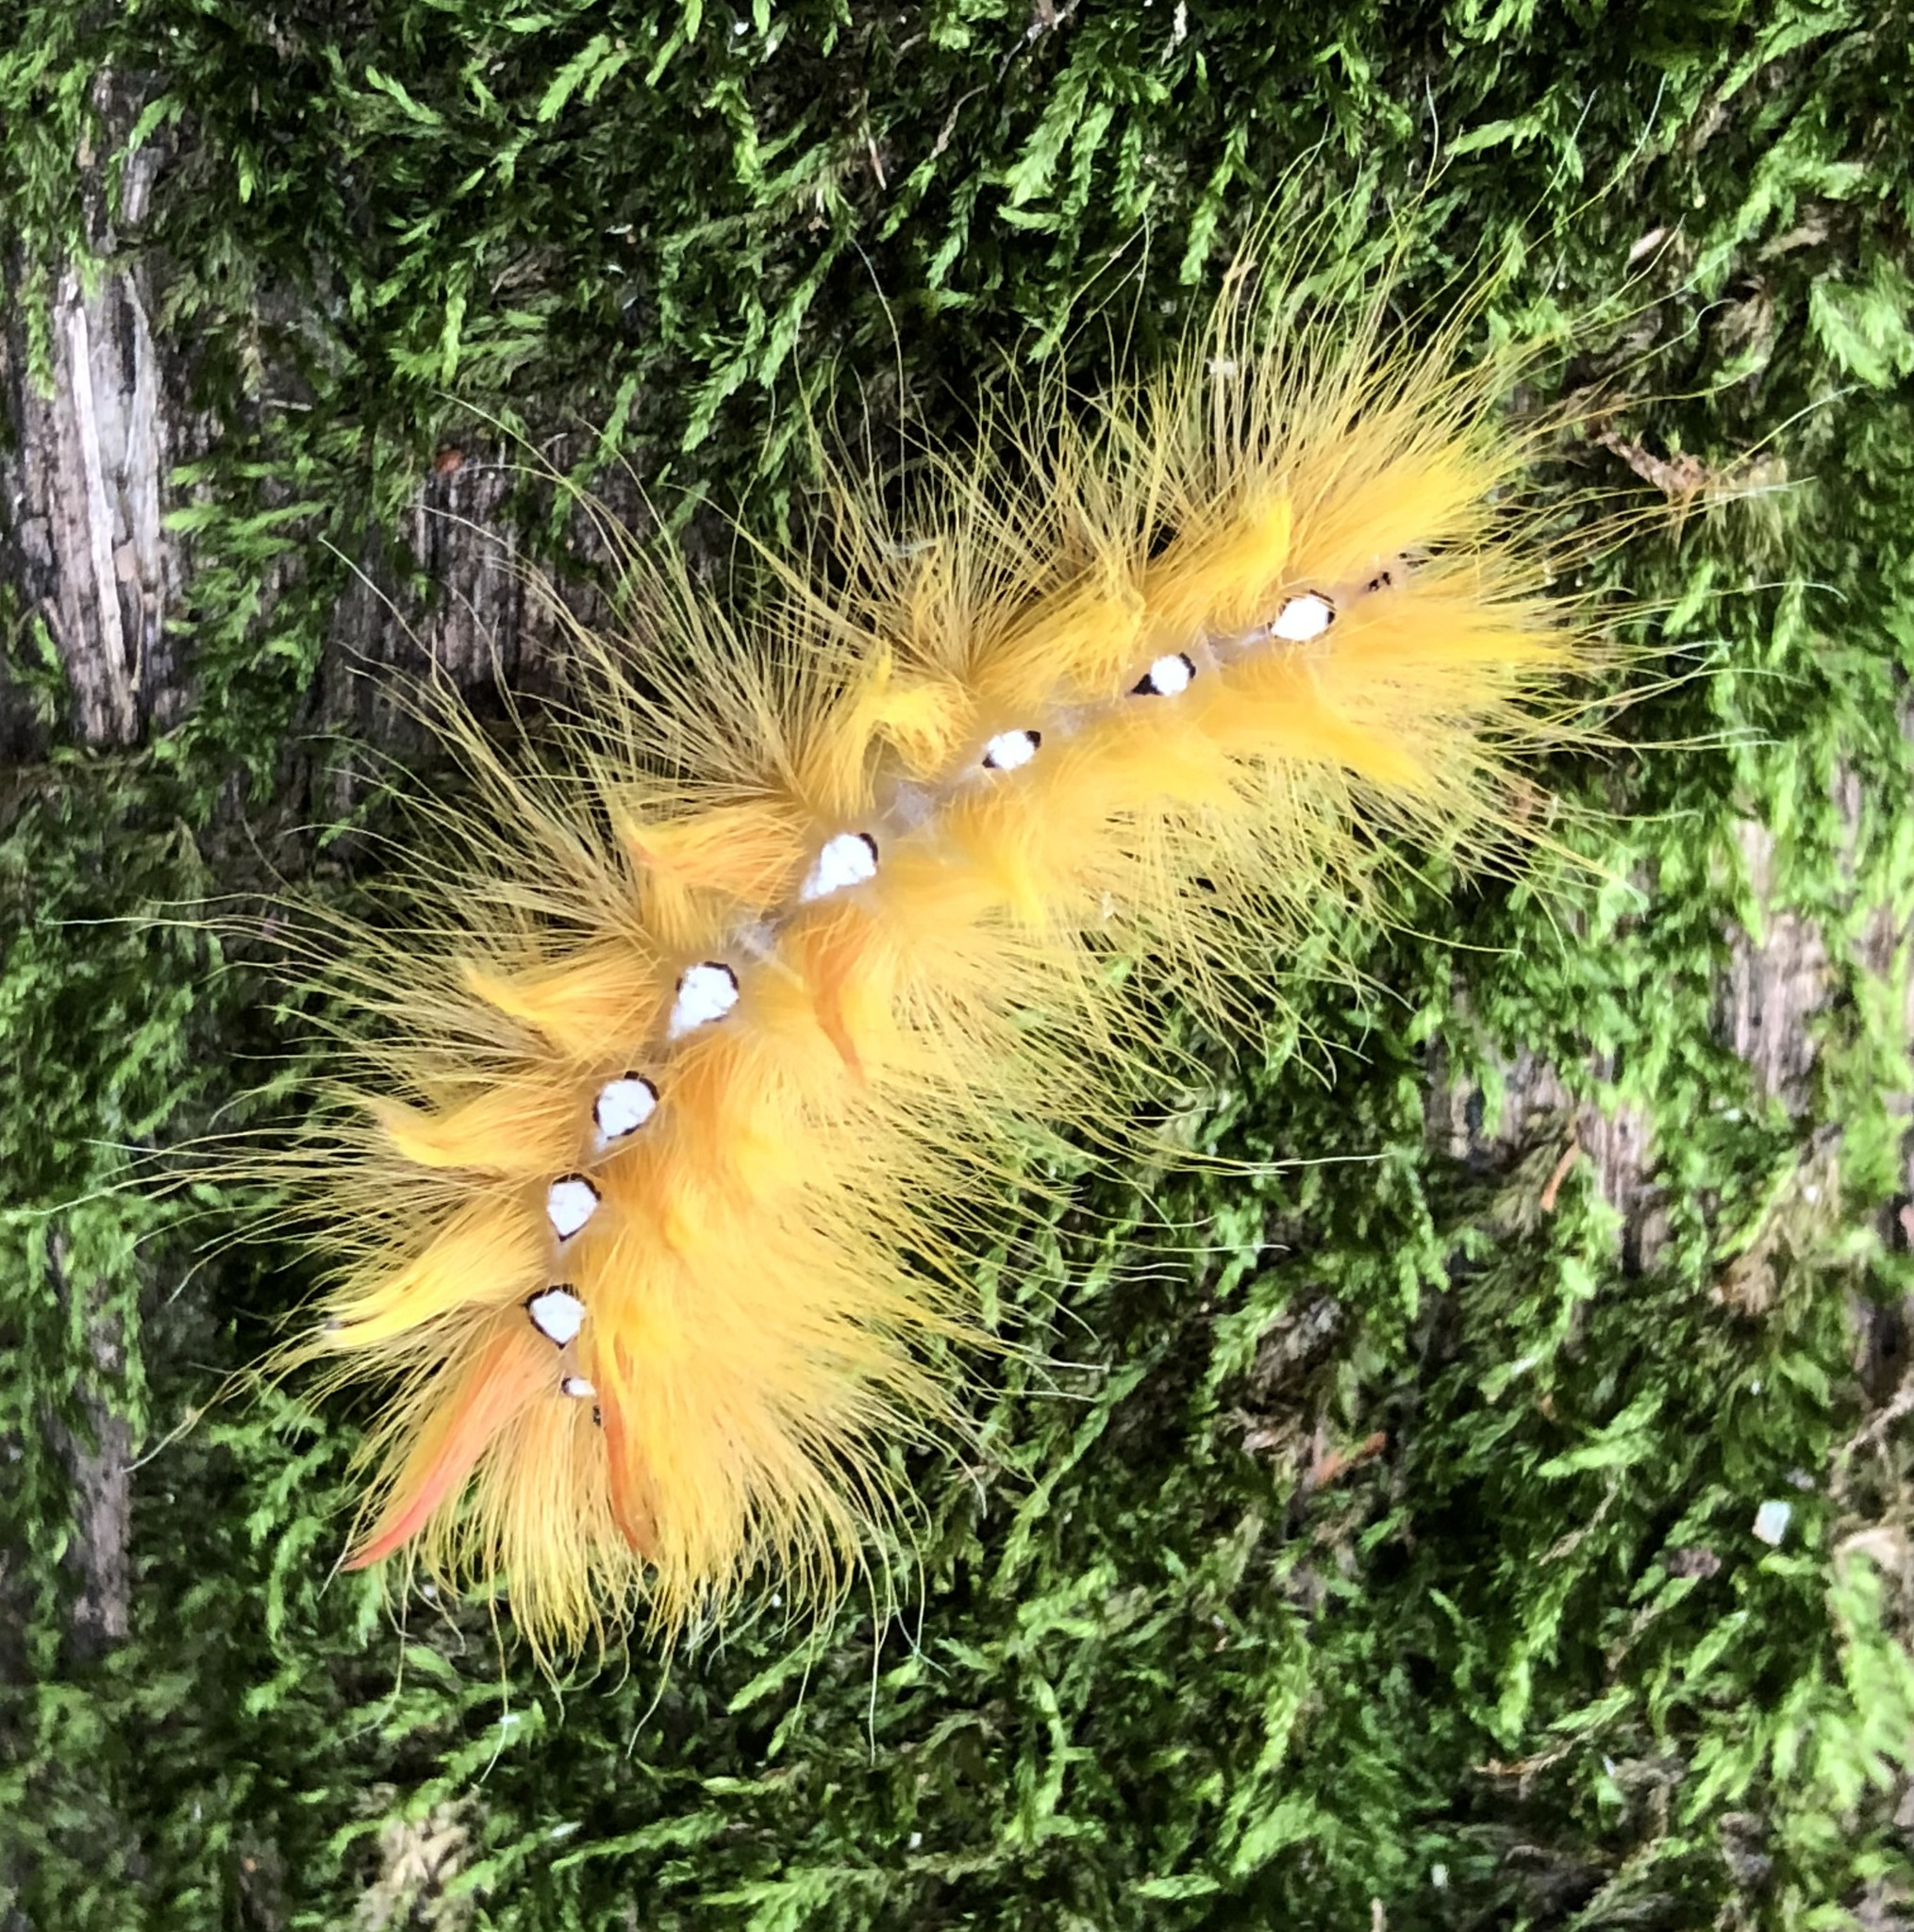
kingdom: Animalia
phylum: Arthropoda
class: Insecta
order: Lepidoptera
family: Noctuidae
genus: Acronicta
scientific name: Acronicta aceris
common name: Sycamore
